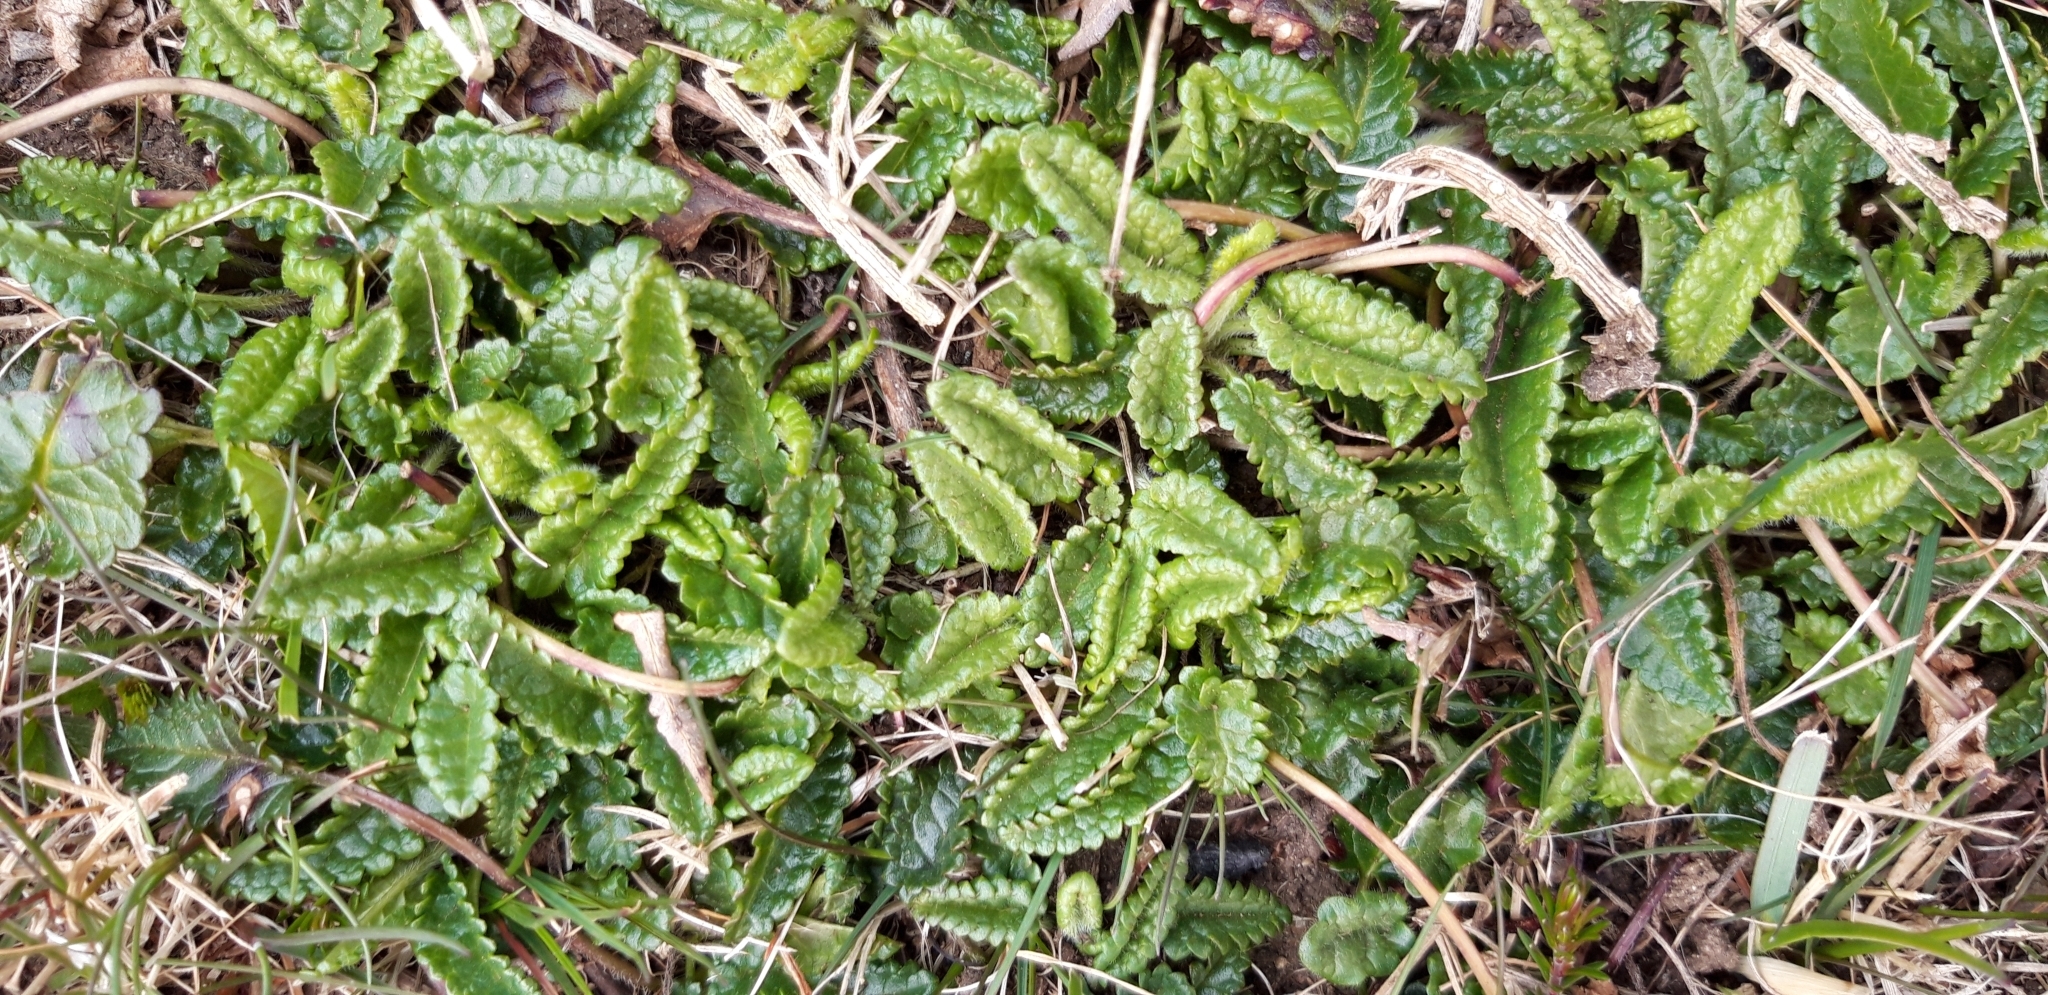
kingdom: Plantae
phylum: Tracheophyta
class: Magnoliopsida
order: Lamiales
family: Lamiaceae
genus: Betonica
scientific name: Betonica officinalis
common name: Bishop's-wort
